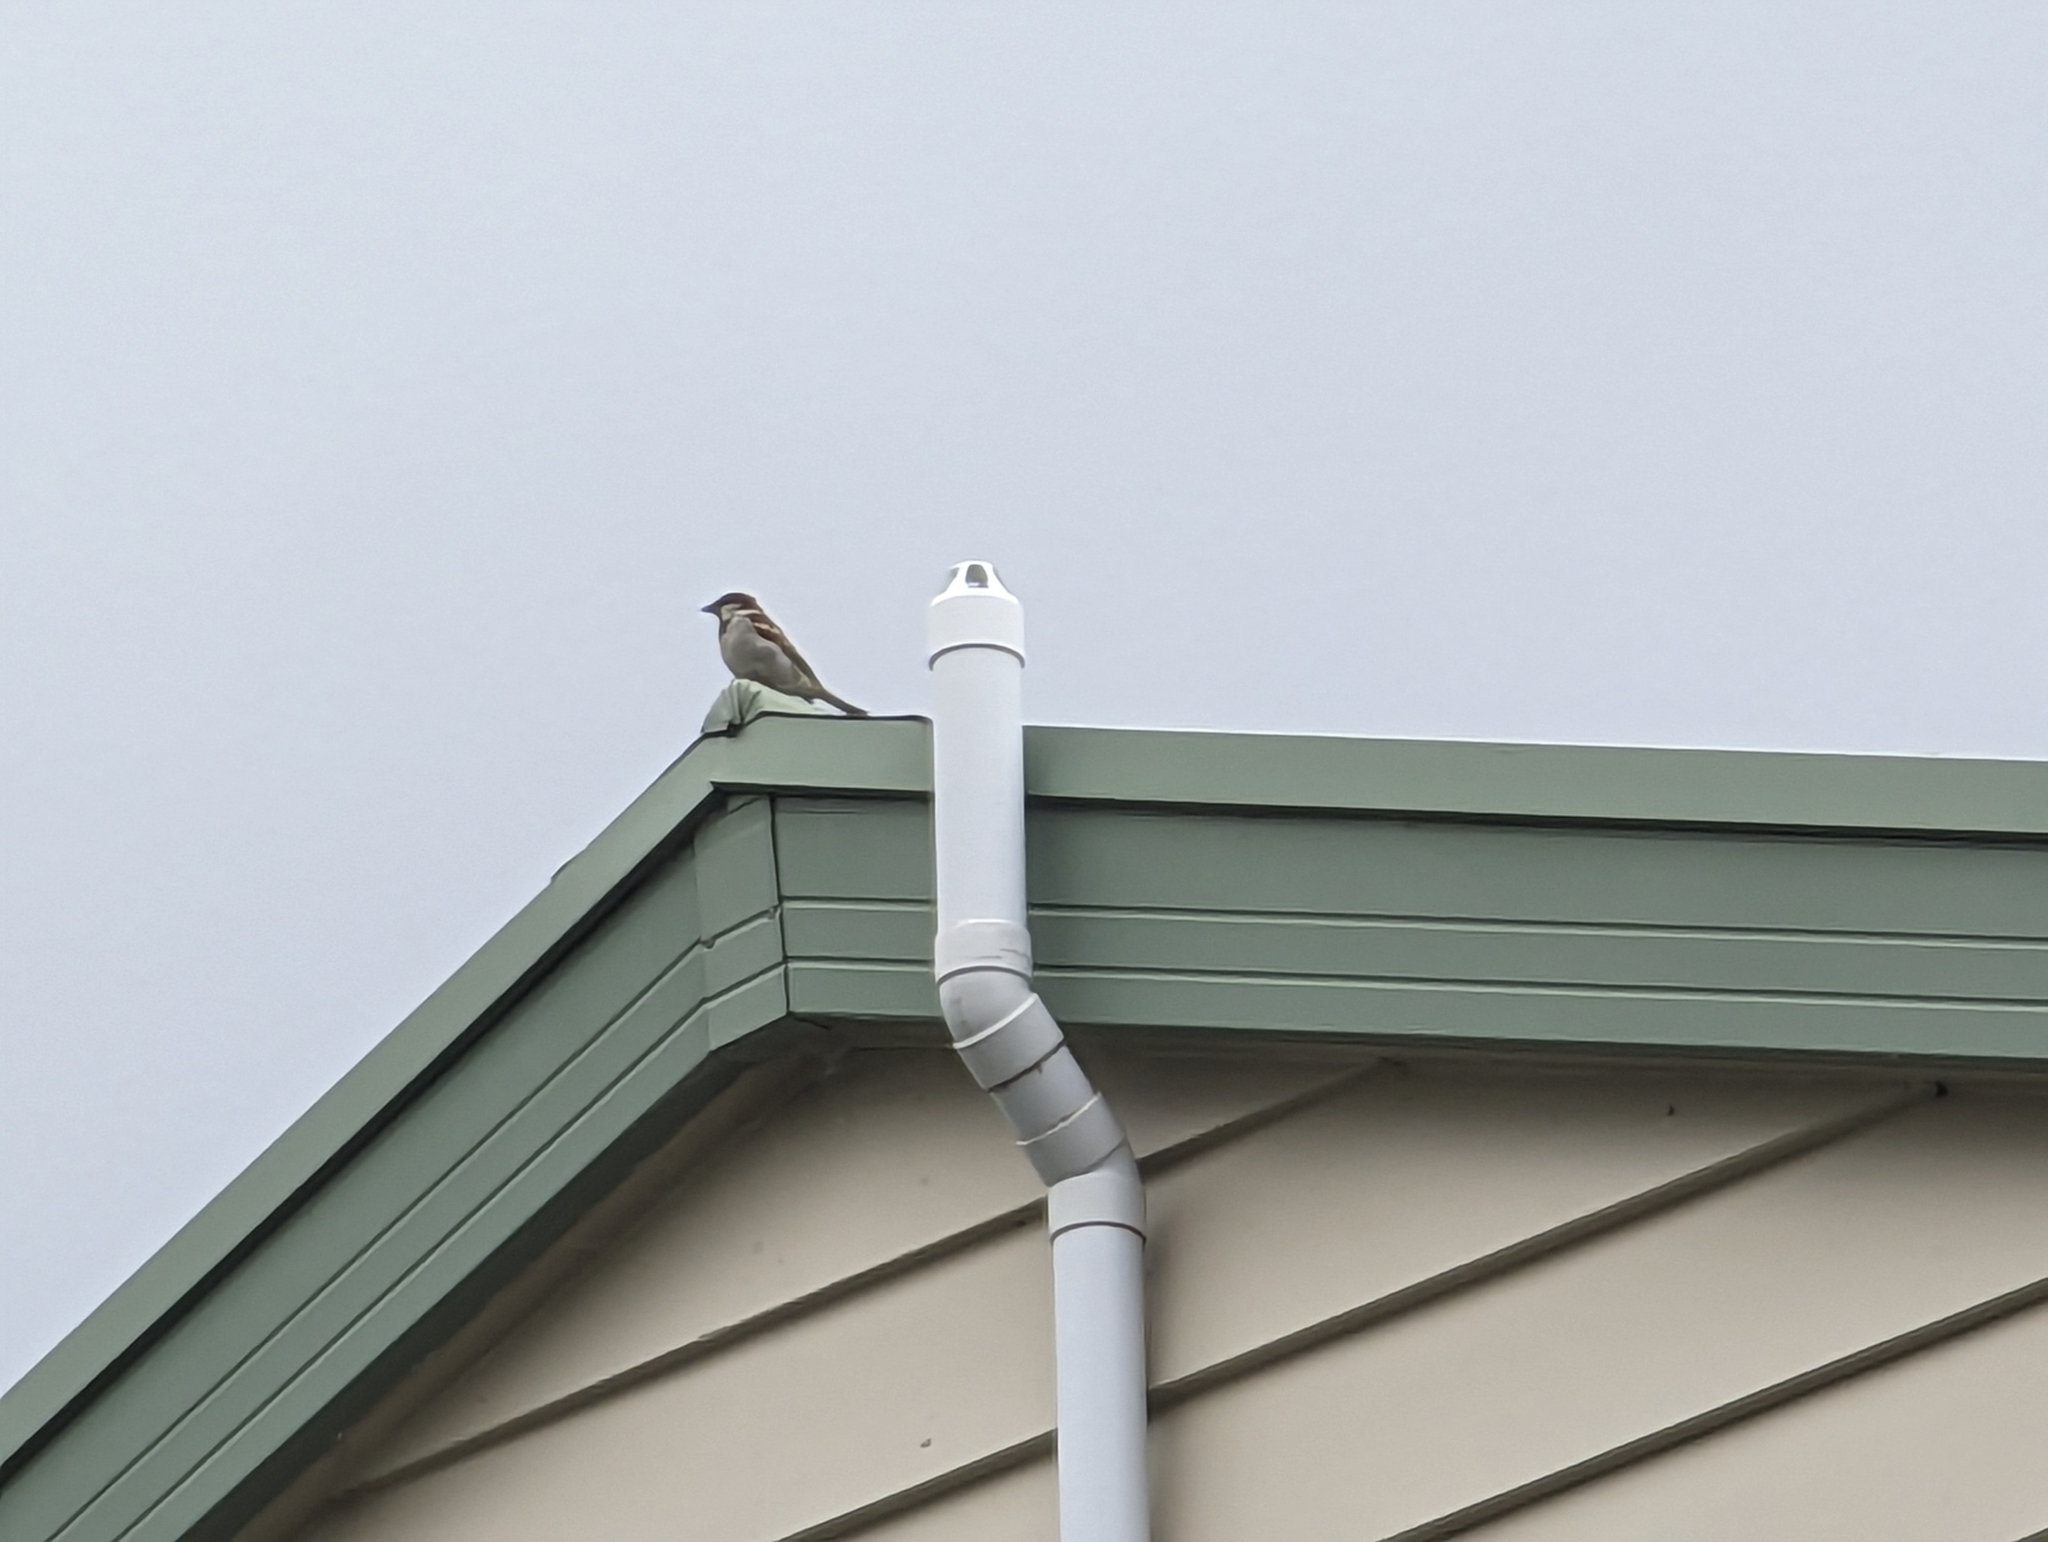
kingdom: Animalia
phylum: Chordata
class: Aves
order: Passeriformes
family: Passeridae
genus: Passer
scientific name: Passer domesticus
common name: House sparrow
